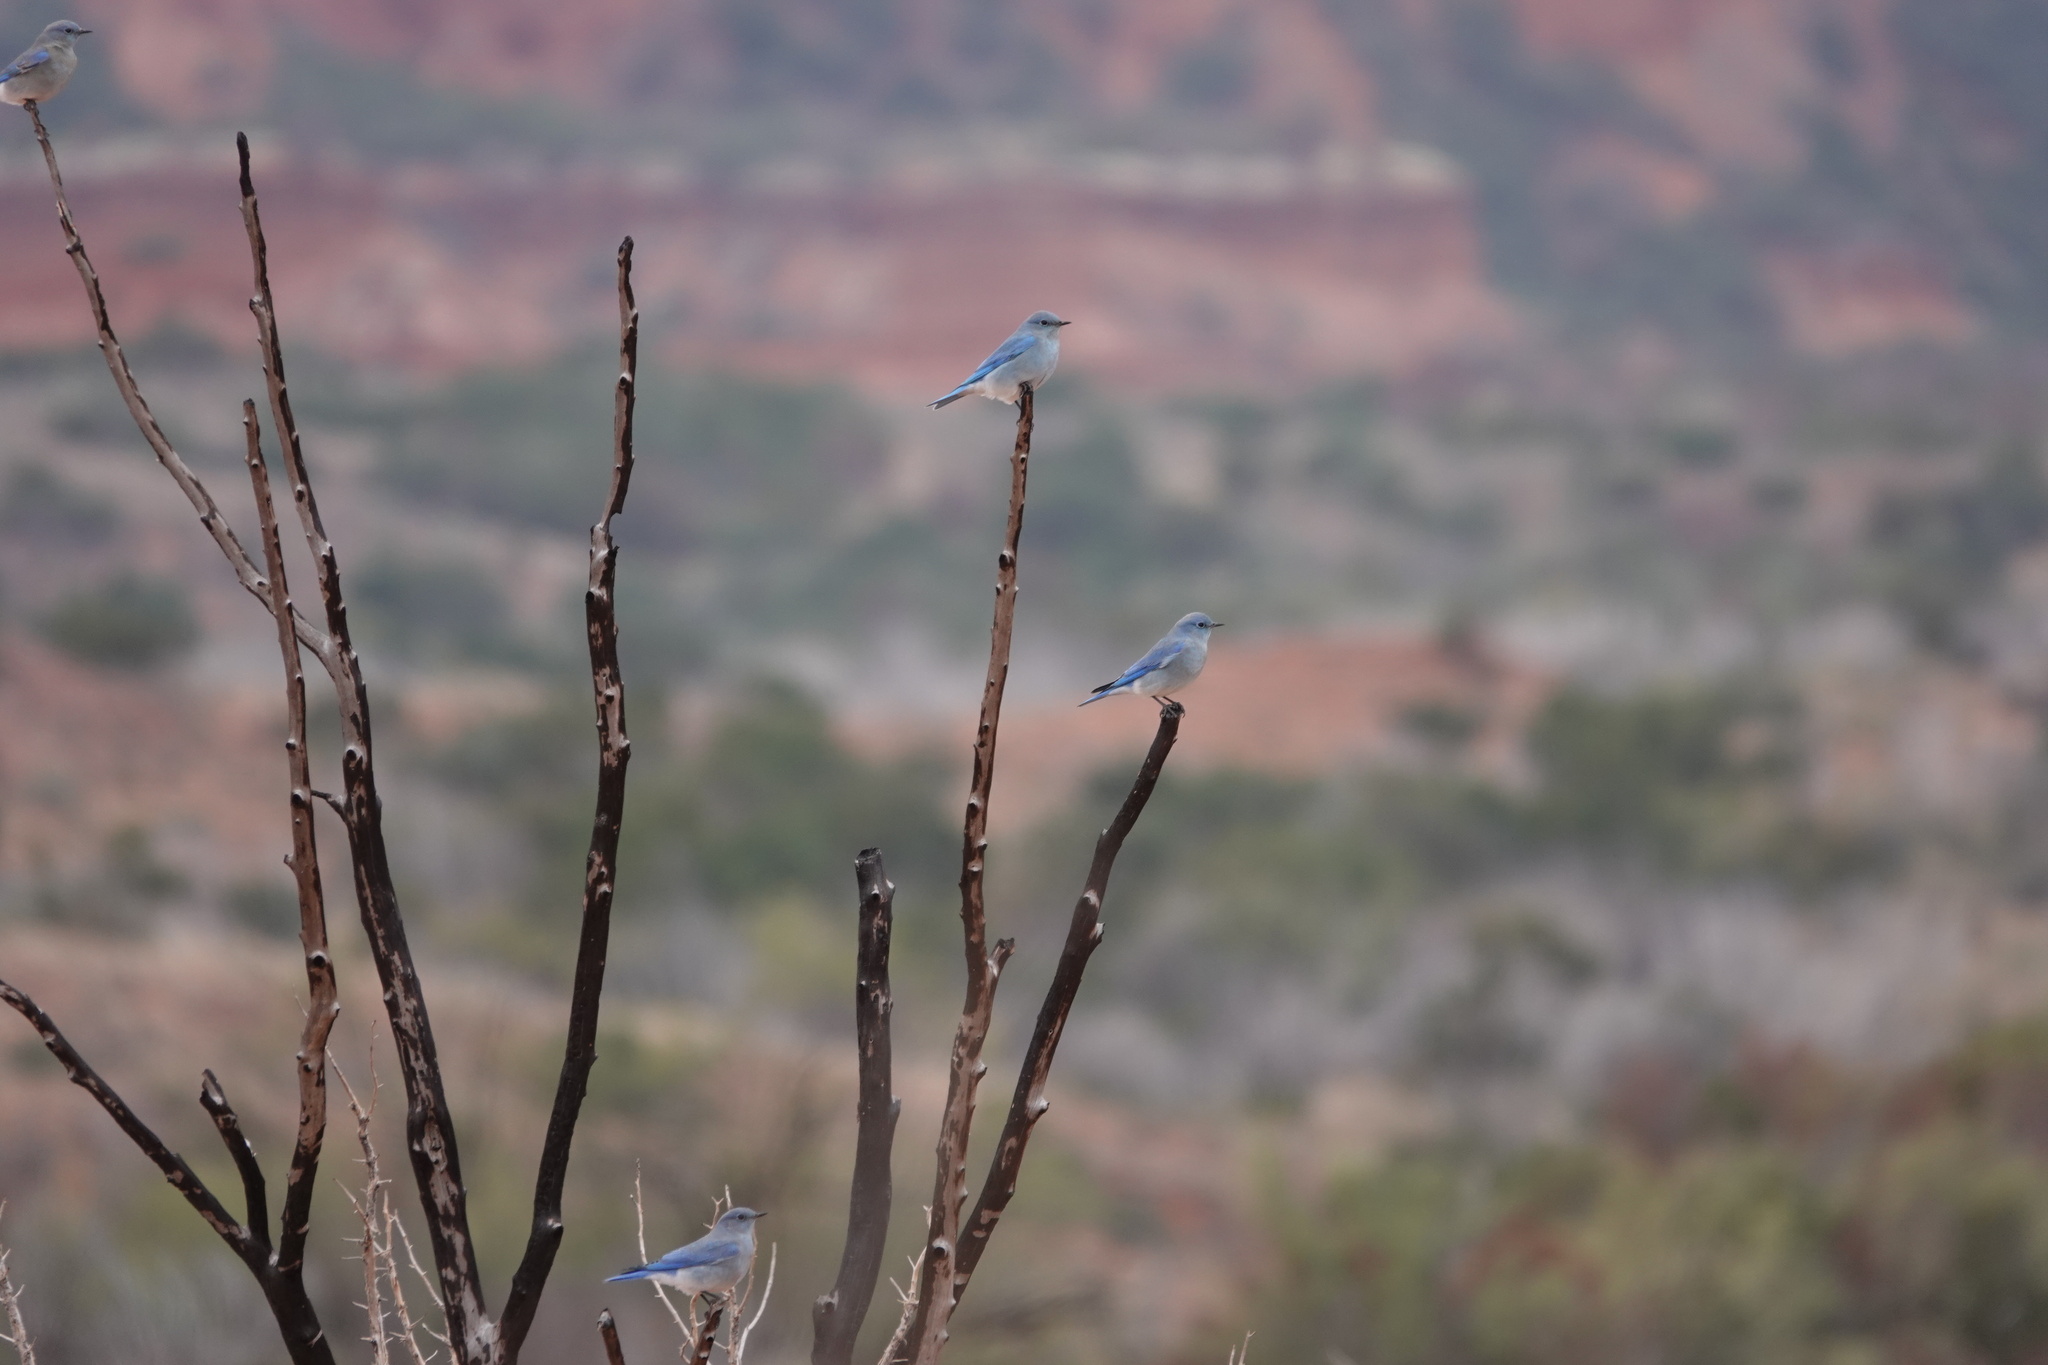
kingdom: Animalia
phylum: Chordata
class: Aves
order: Passeriformes
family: Turdidae
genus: Sialia
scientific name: Sialia currucoides
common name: Mountain bluebird
